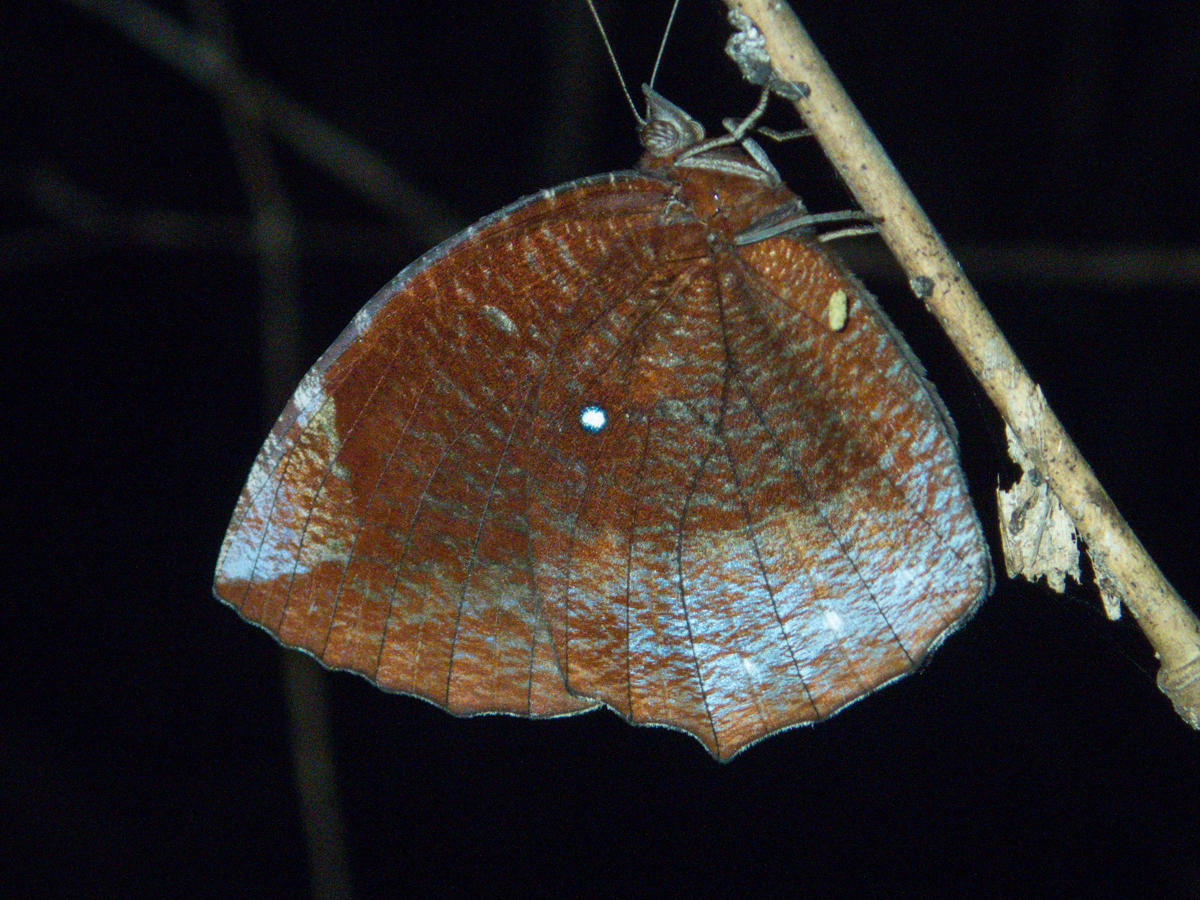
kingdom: Animalia
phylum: Arthropoda
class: Insecta
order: Lepidoptera
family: Nymphalidae
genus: Elymnias
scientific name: Elymnias hypermnestra
